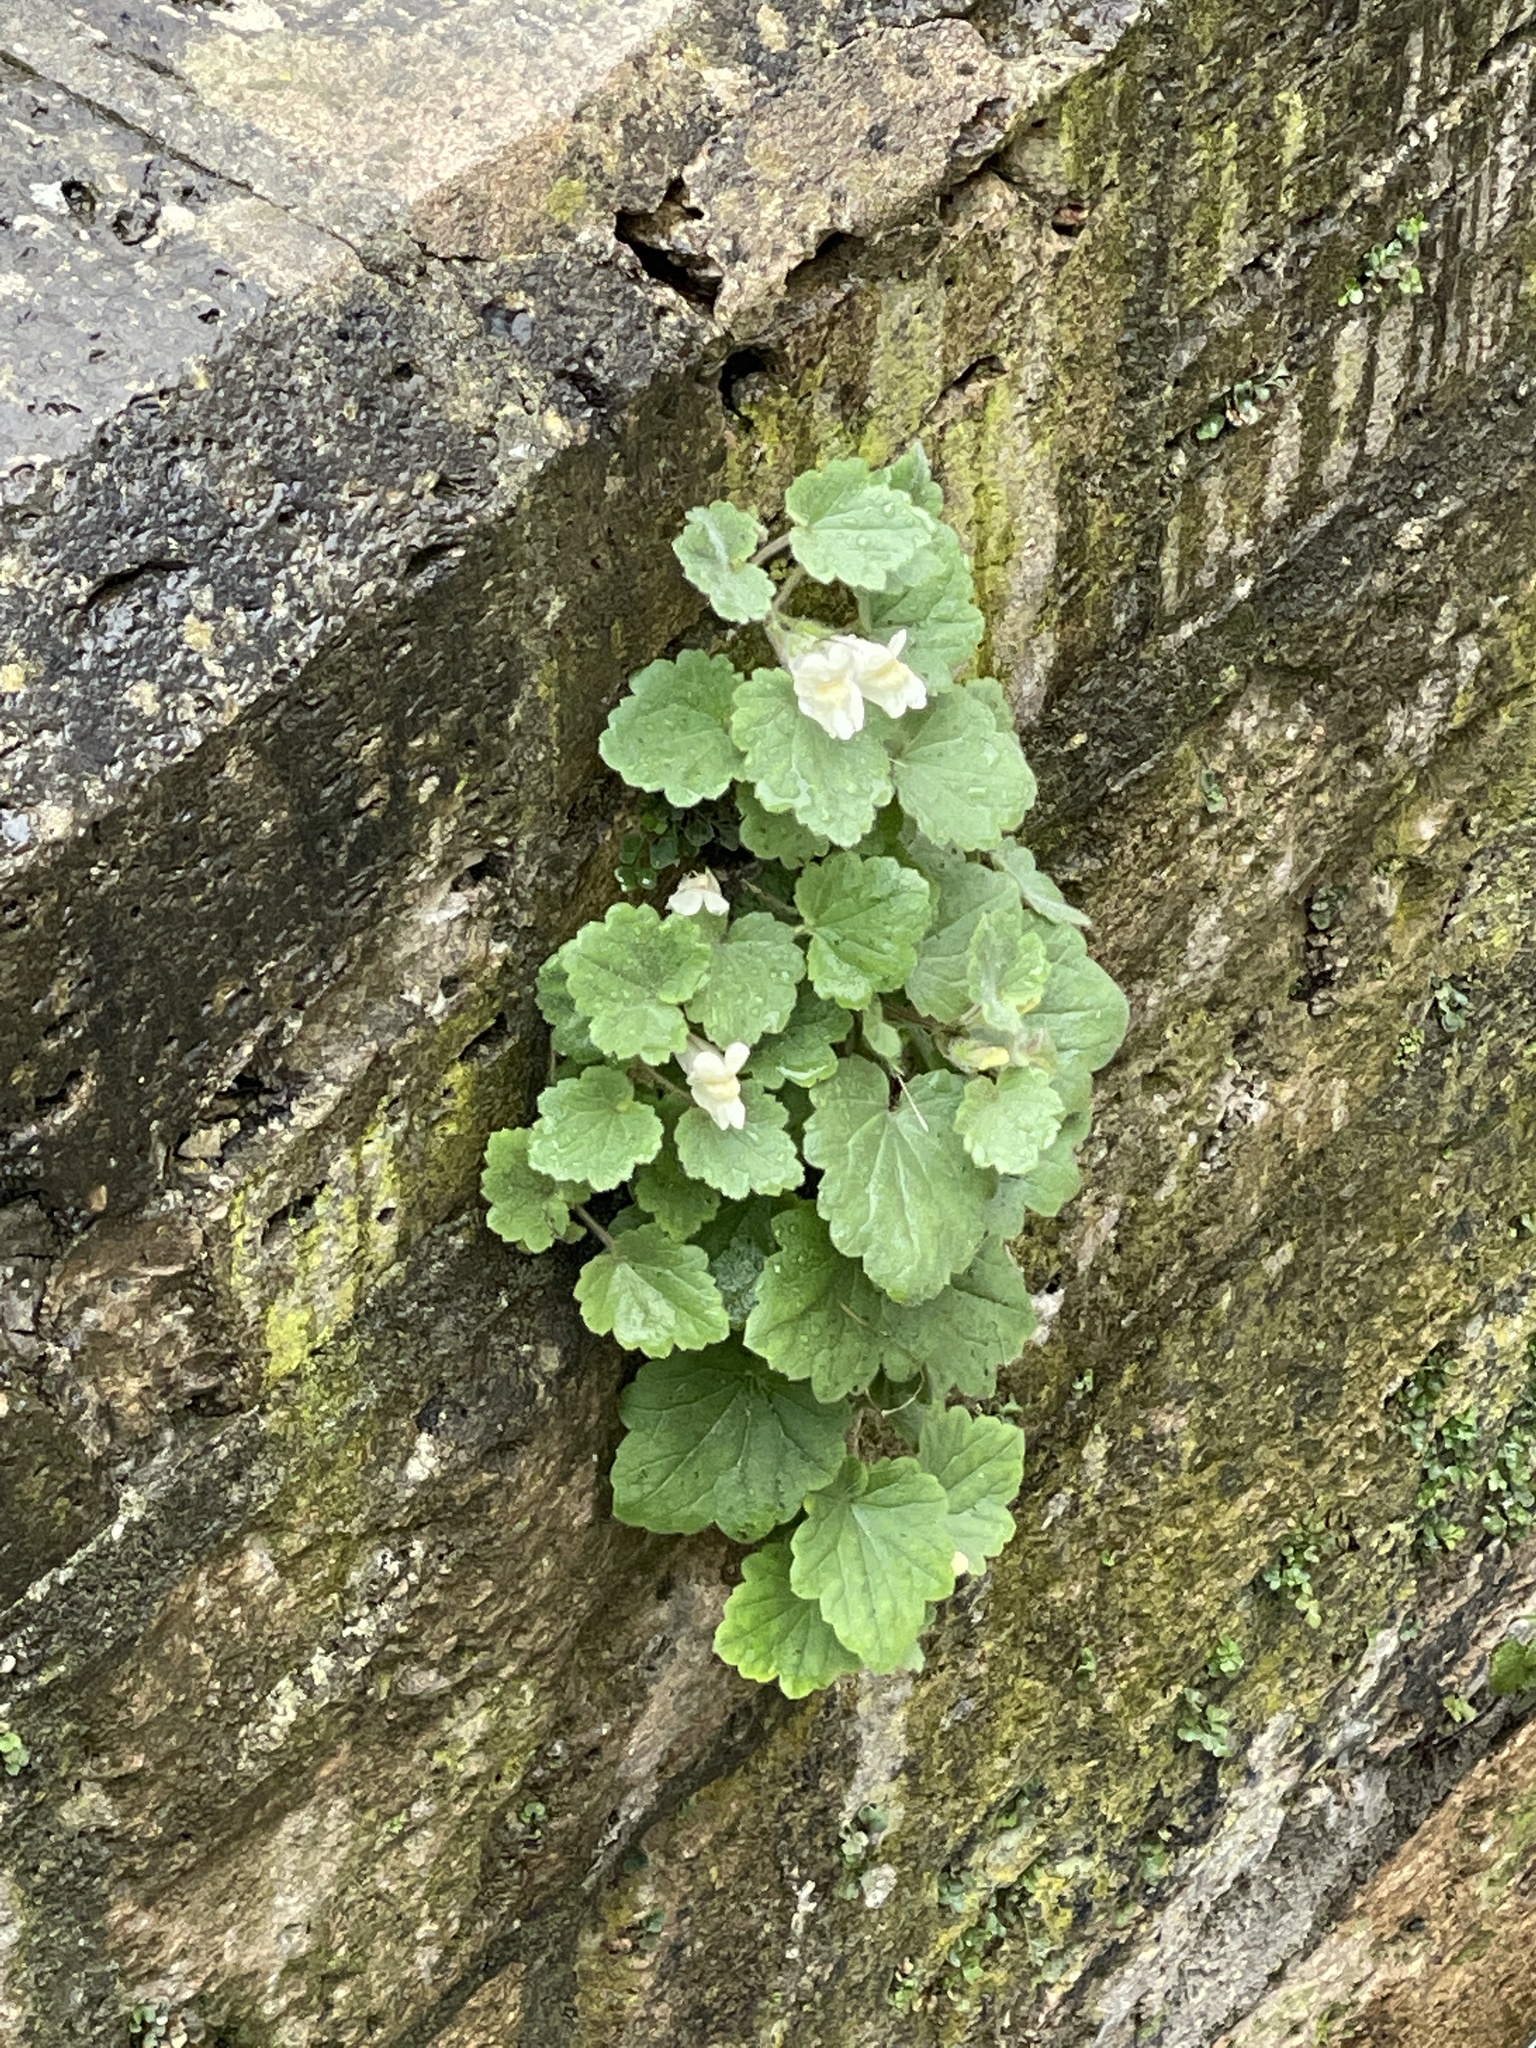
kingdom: Plantae
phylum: Tracheophyta
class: Magnoliopsida
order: Lamiales
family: Plantaginaceae
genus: Asarina
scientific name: Asarina procumbens
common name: Trailing snapdragon
